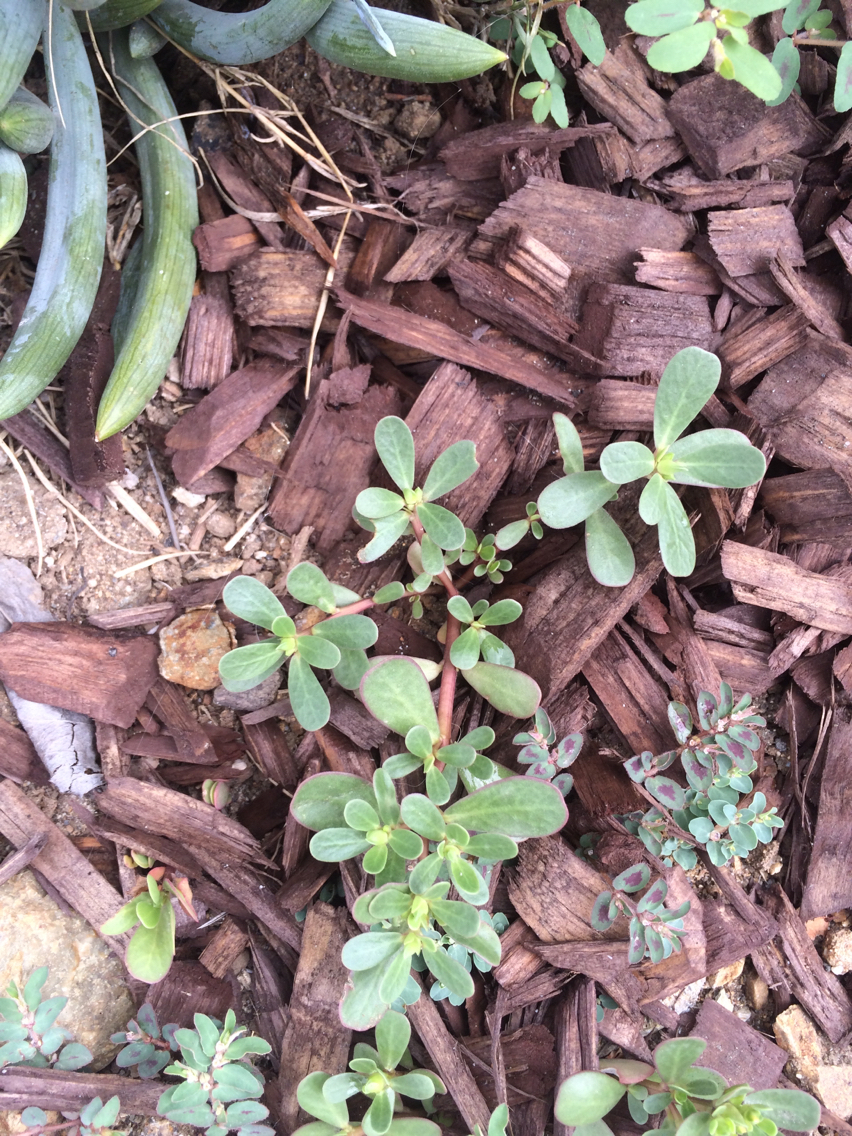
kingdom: Plantae
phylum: Tracheophyta
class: Magnoliopsida
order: Caryophyllales
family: Portulacaceae
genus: Portulaca
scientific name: Portulaca oleracea
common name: Common purslane
